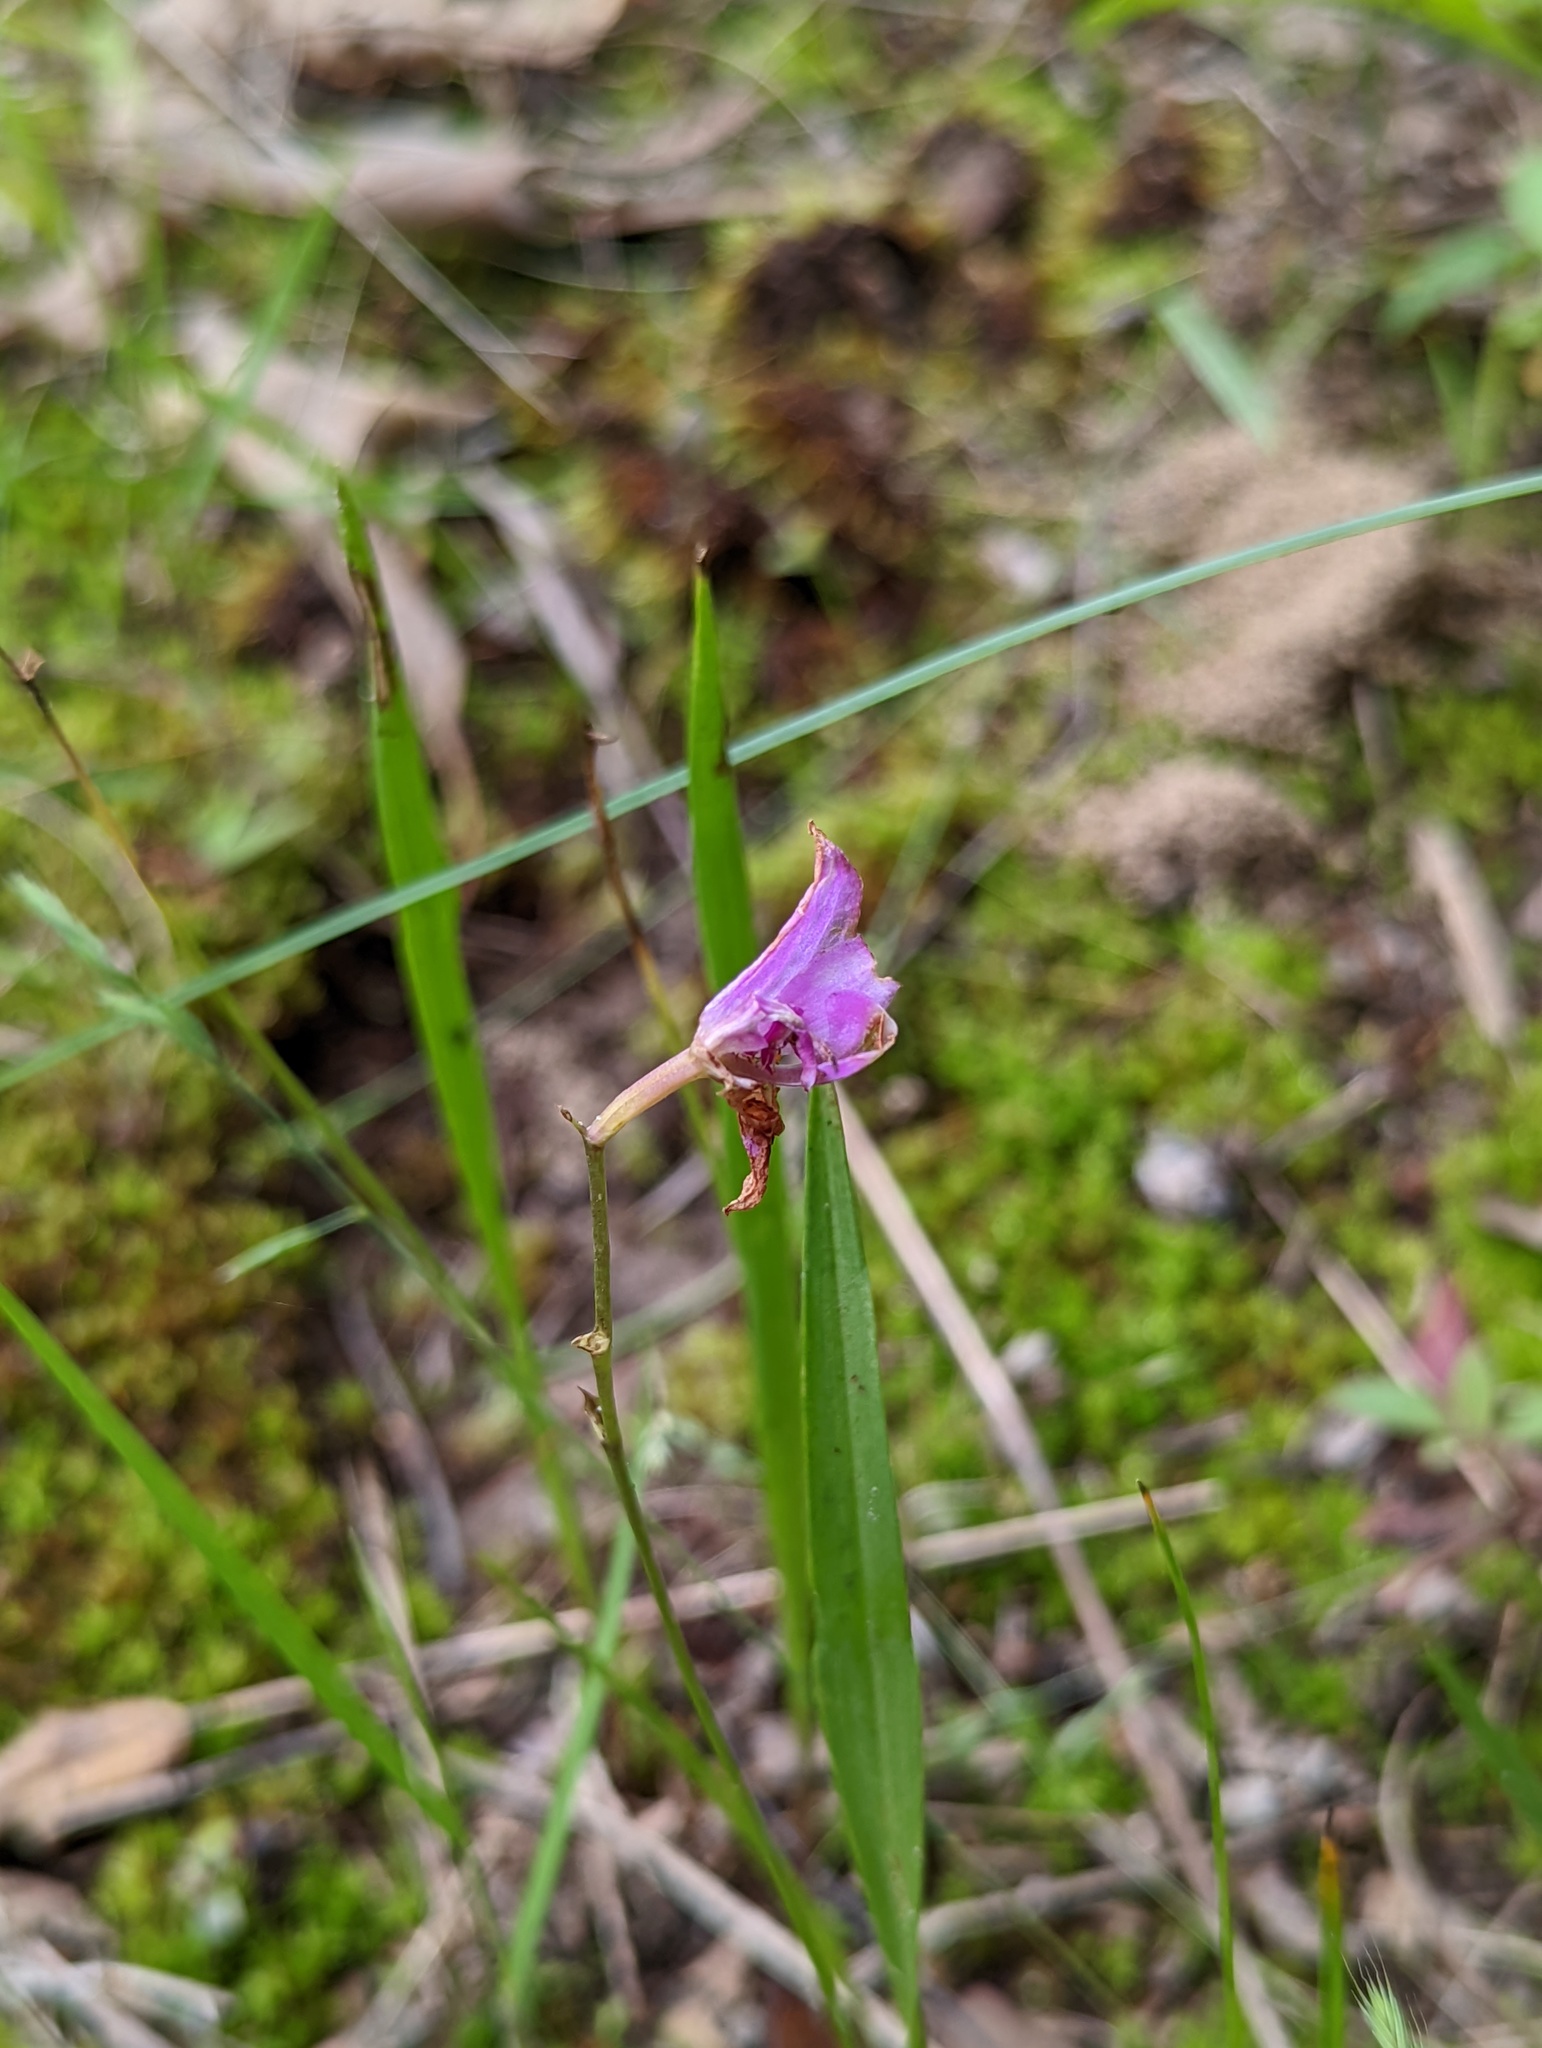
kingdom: Plantae
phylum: Tracheophyta
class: Liliopsida
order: Asparagales
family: Orchidaceae
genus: Calopogon
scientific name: Calopogon oklahomensis
